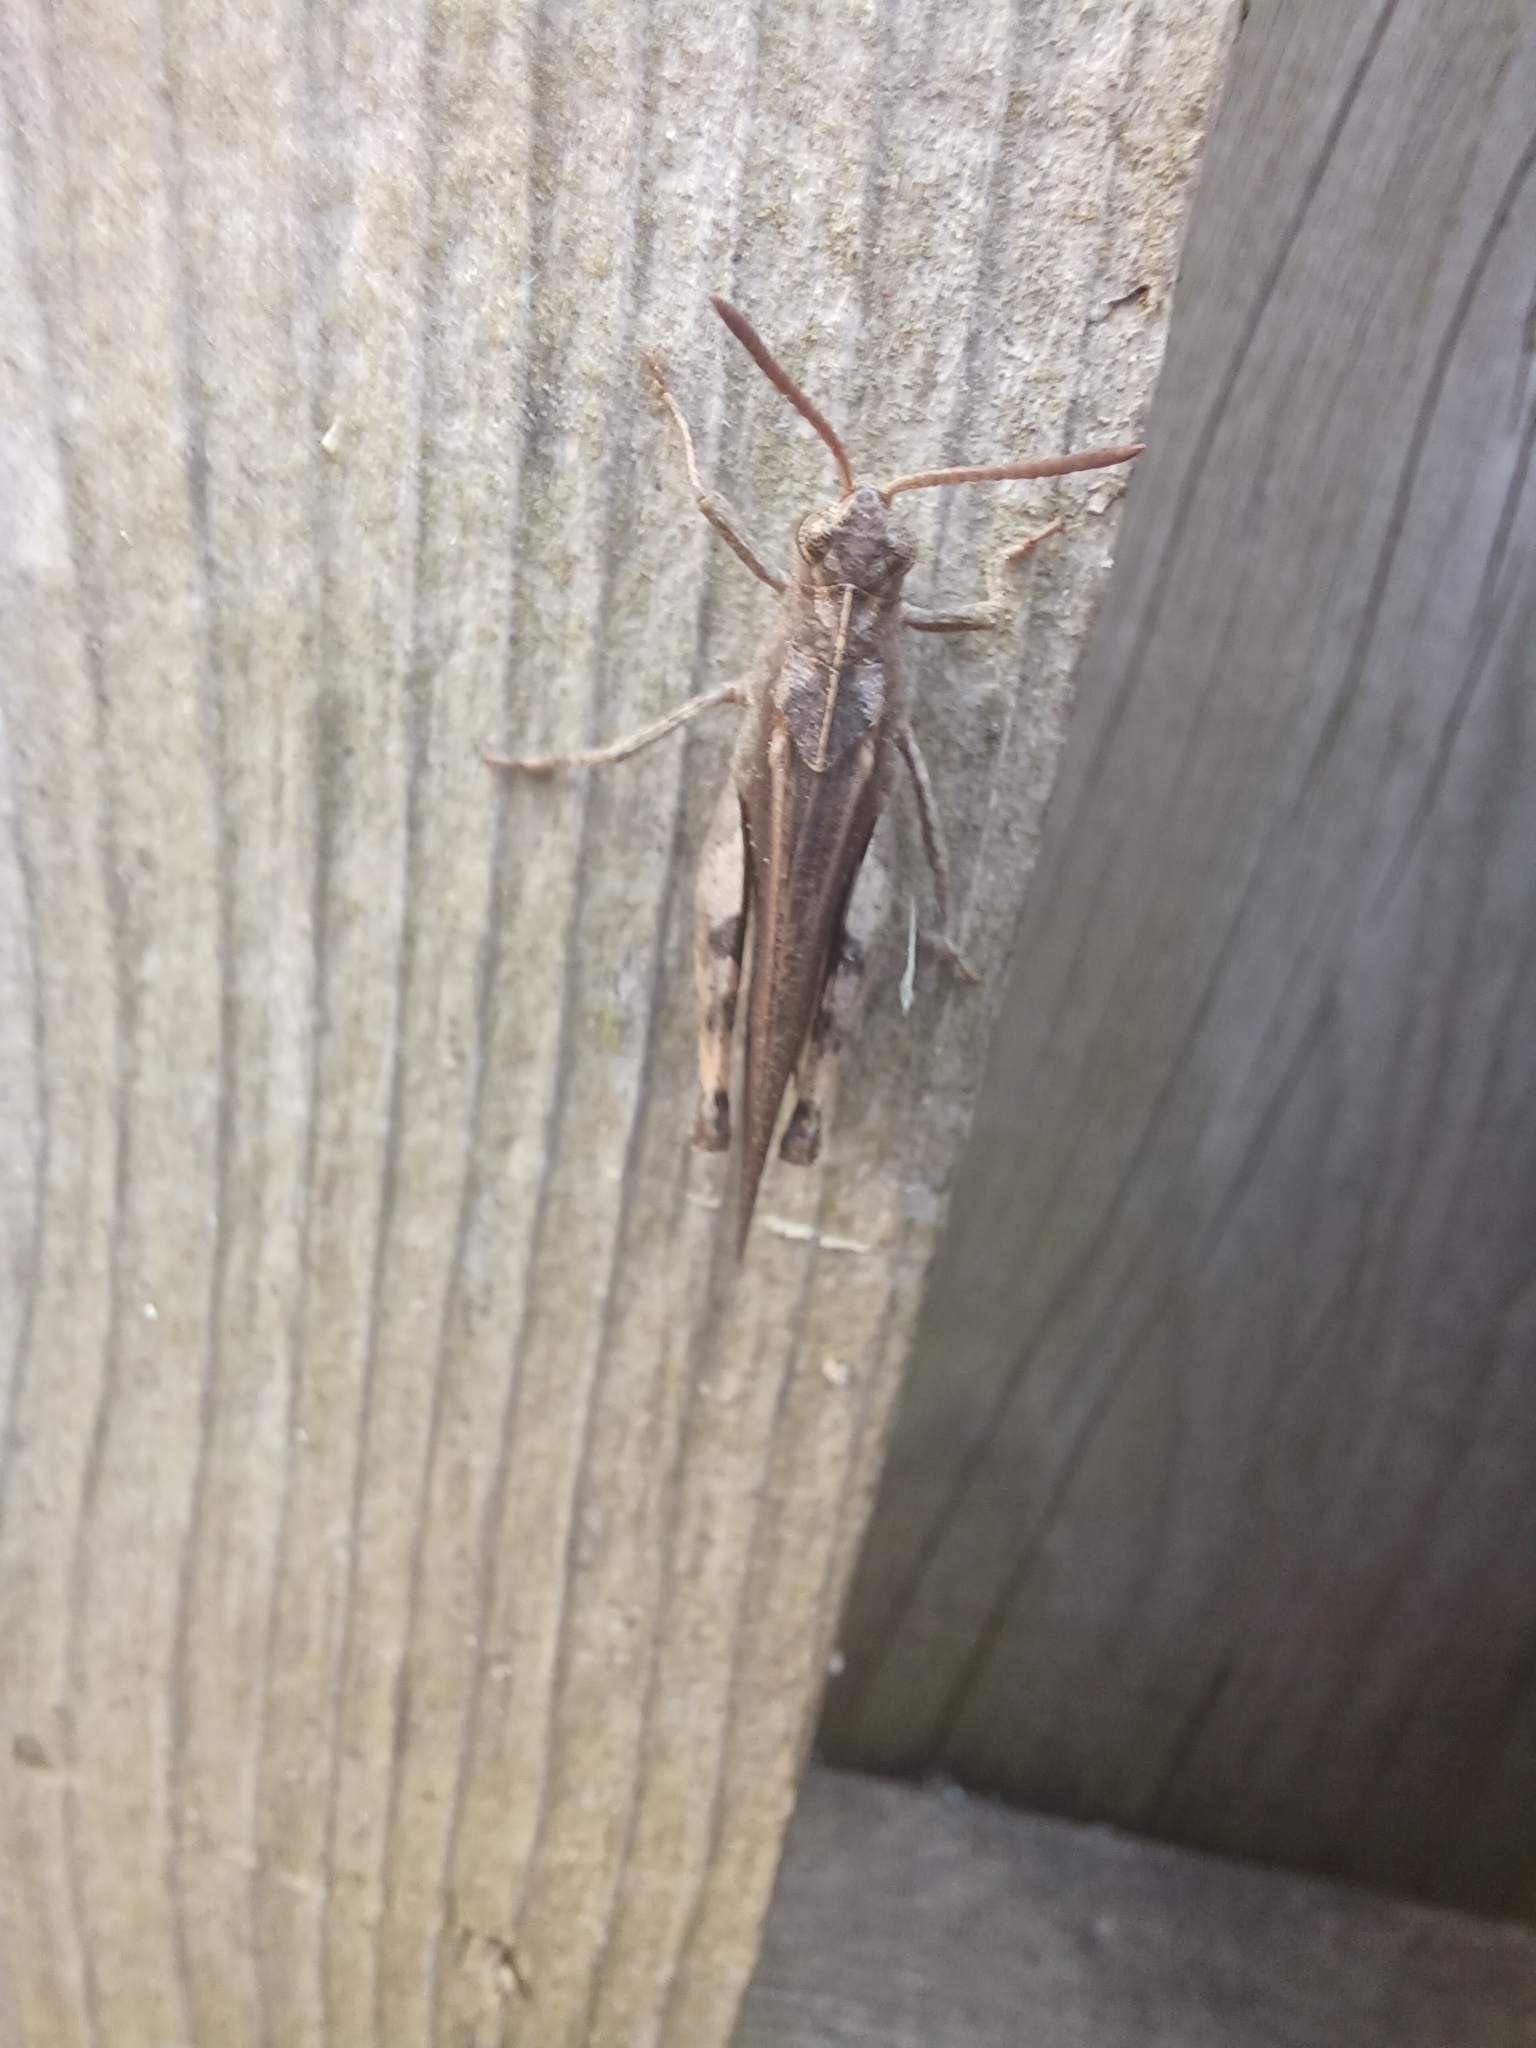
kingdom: Animalia
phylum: Arthropoda
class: Insecta
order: Orthoptera
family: Acrididae
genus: Chortophaga
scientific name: Chortophaga viridifasciata
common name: Green-striped grasshopper
